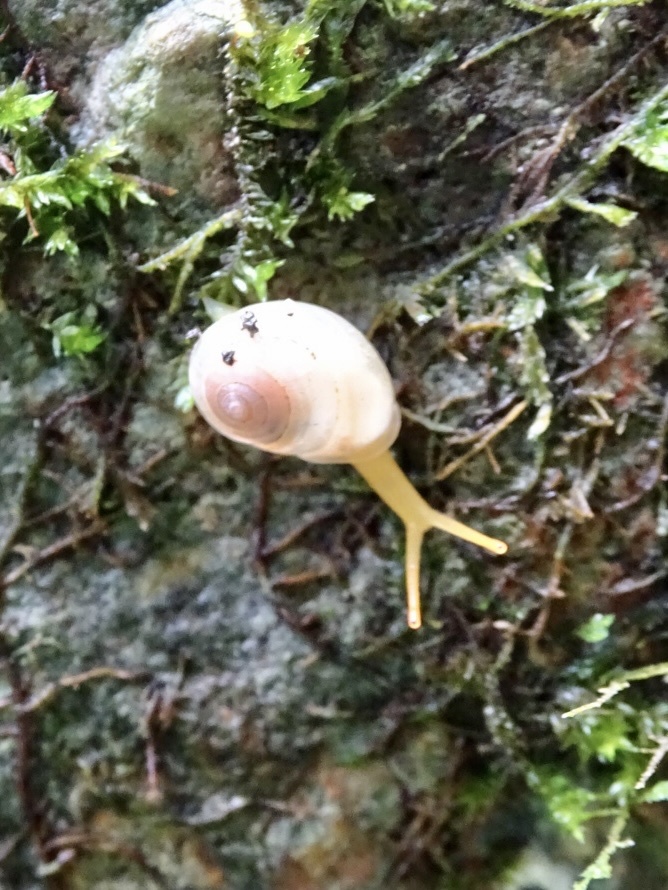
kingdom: Animalia
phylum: Mollusca
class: Gastropoda
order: Stylommatophora
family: Streptaxidae
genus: Haploptychius
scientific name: Haploptychius sinensis
